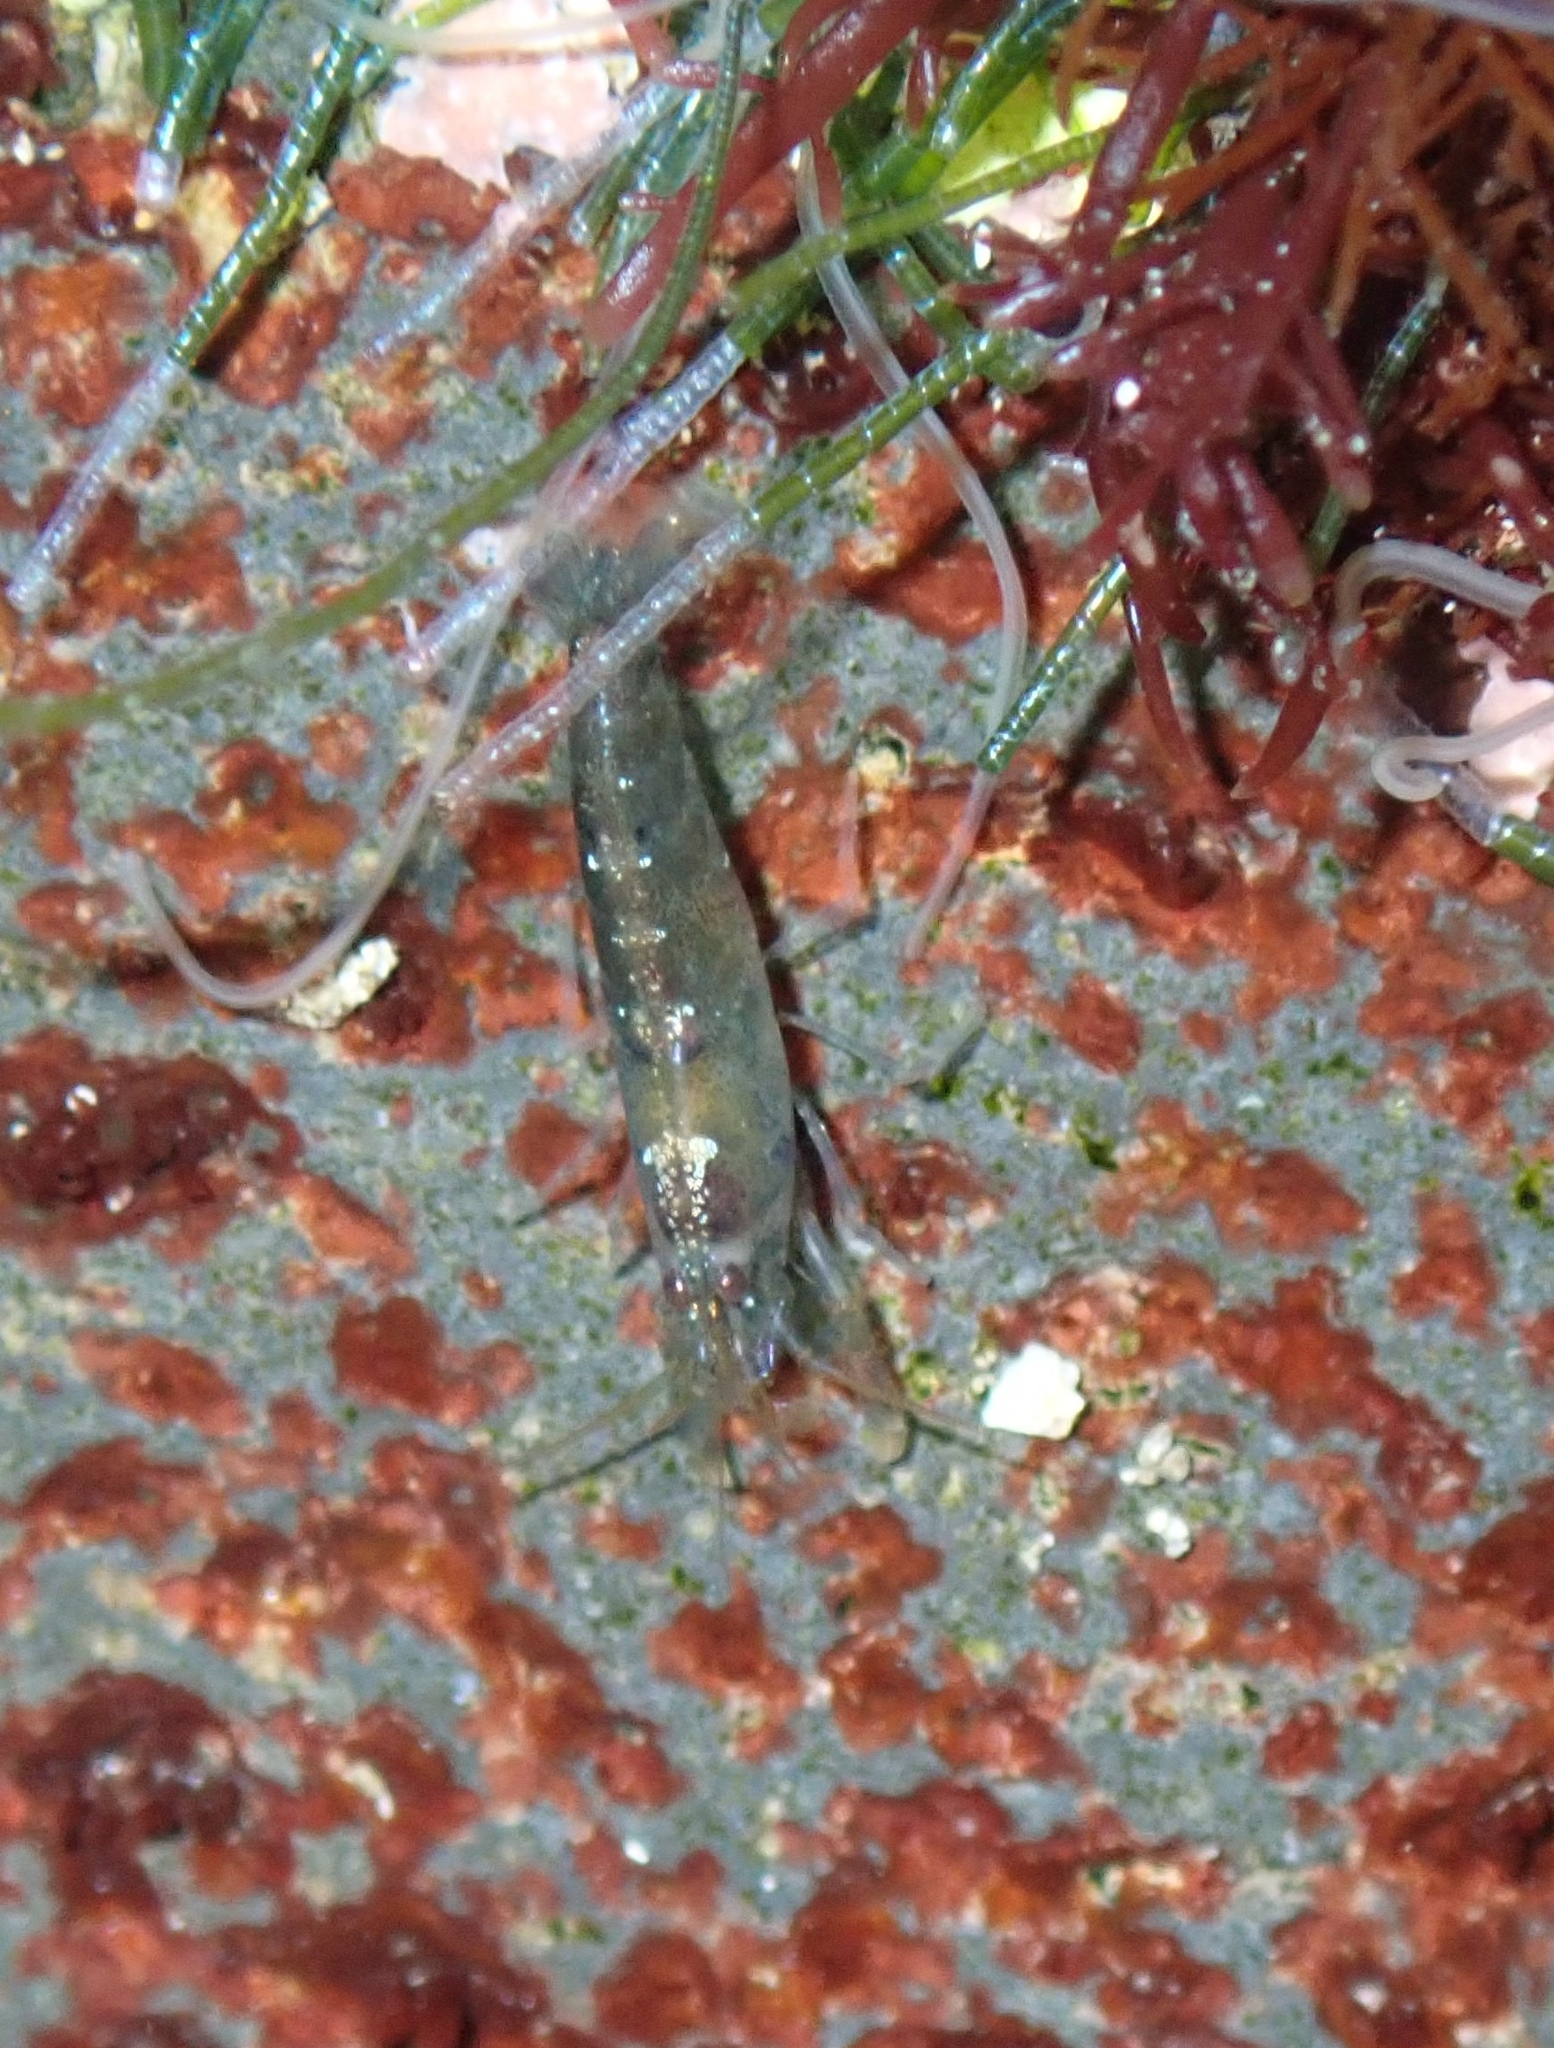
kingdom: Animalia
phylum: Arthropoda
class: Malacostraca
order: Decapoda
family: Alpheidae
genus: Athanas
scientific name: Athanas nitescens
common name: Hooded shrimp
